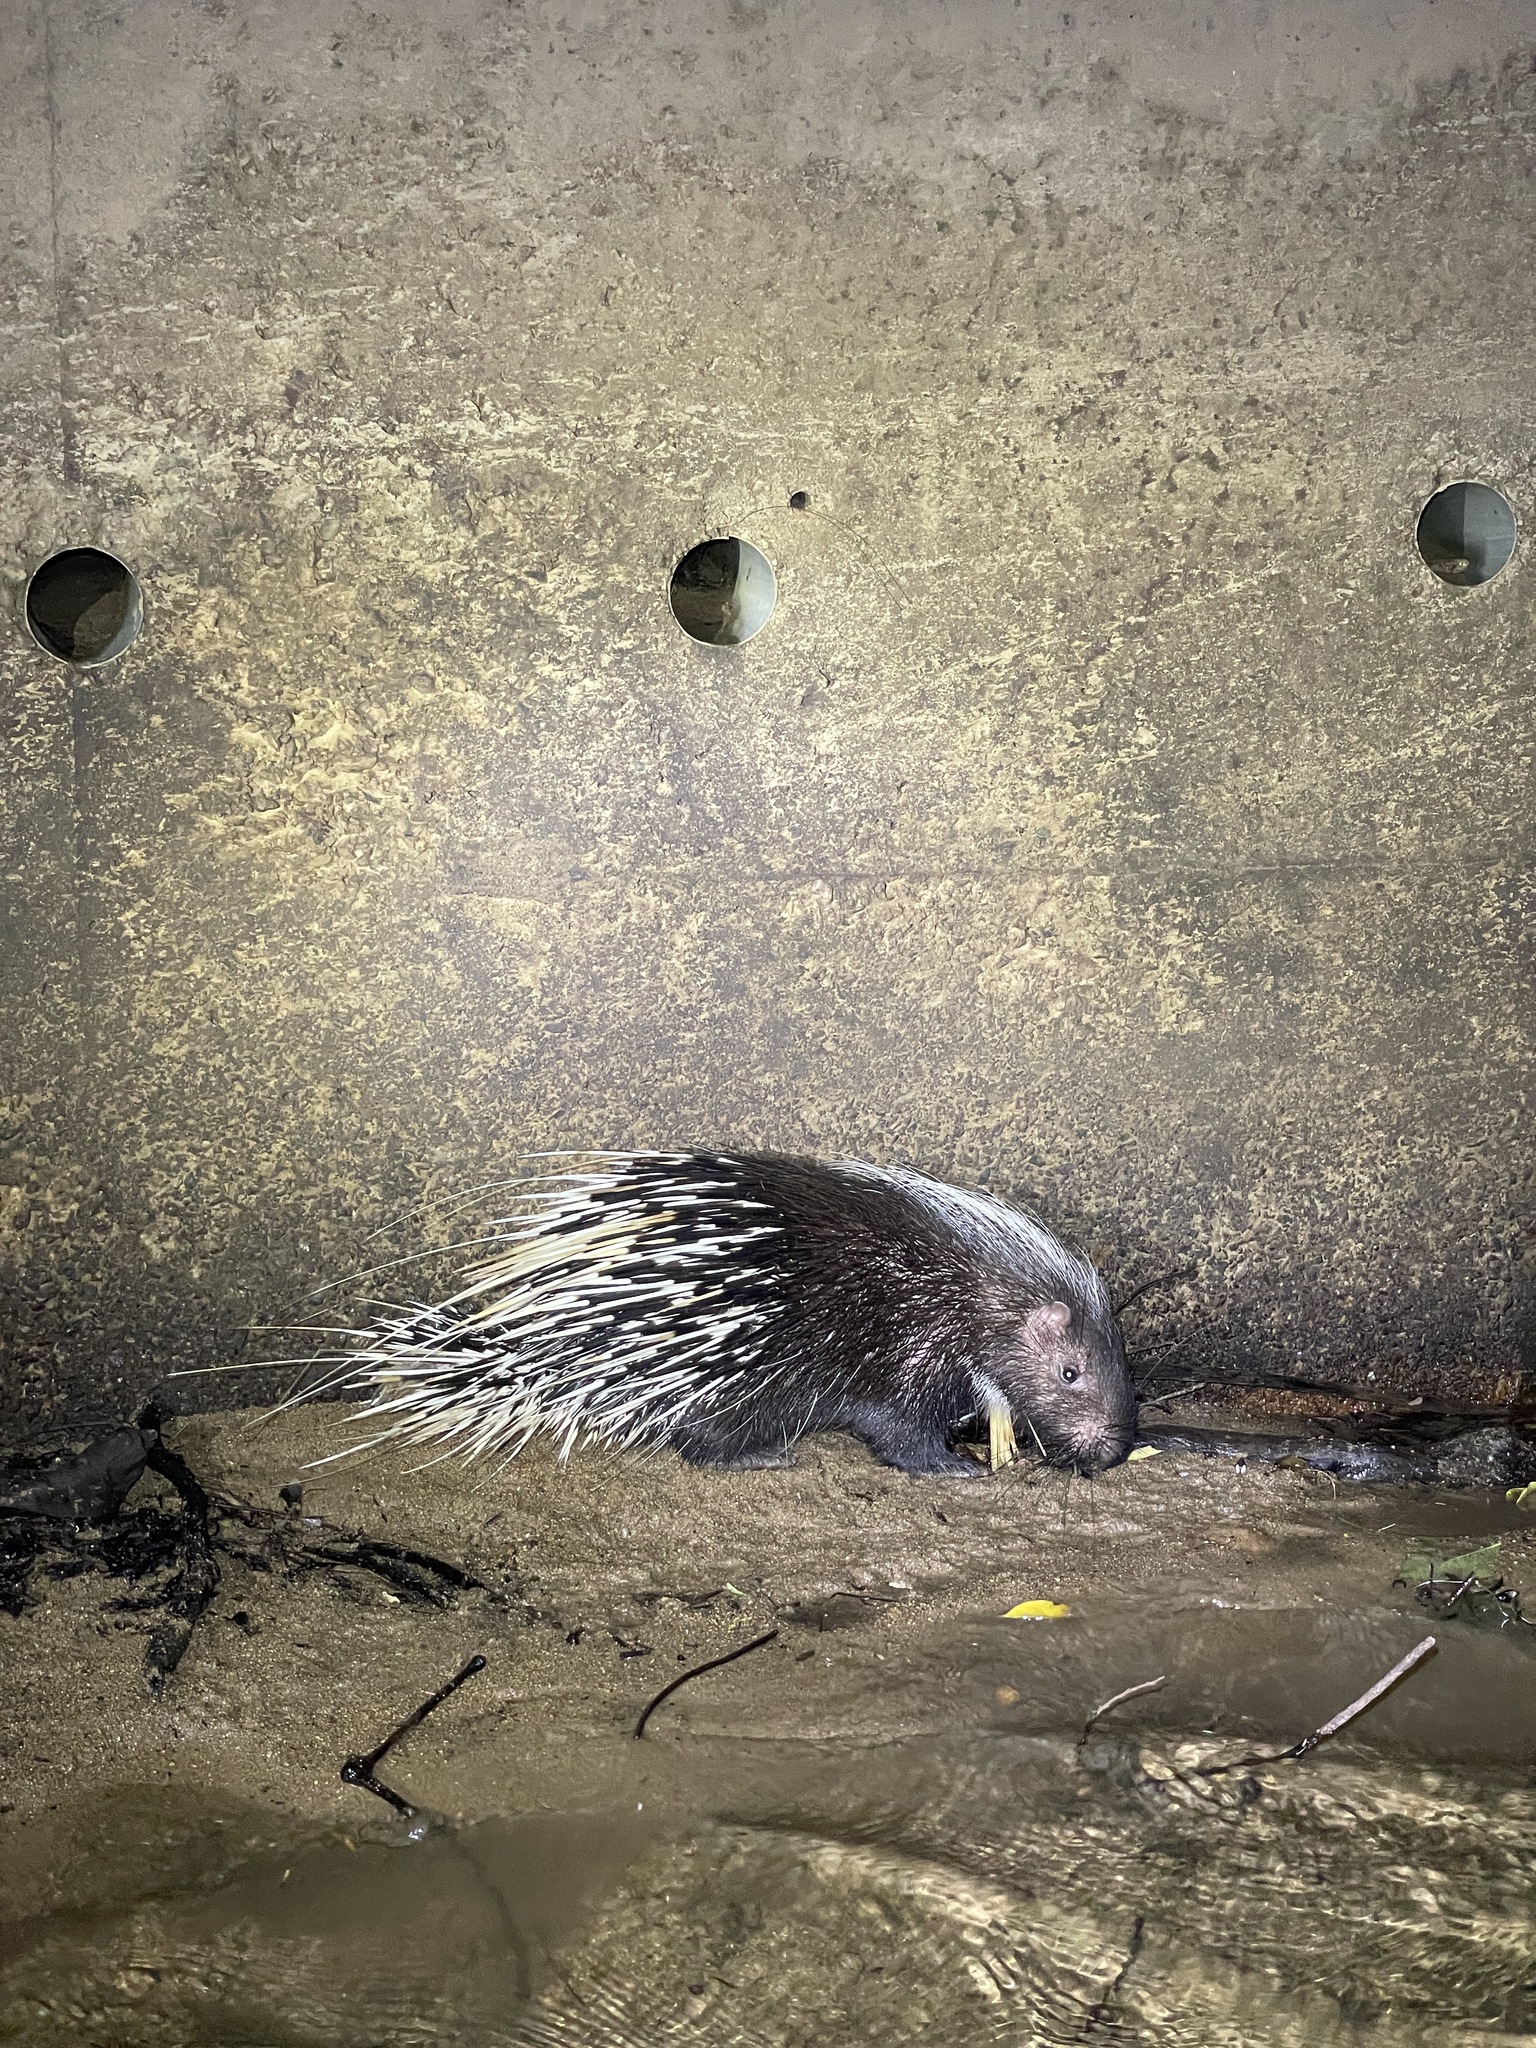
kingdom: Animalia
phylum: Chordata
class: Mammalia
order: Rodentia
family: Hystricidae
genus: Hystrix
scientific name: Hystrix brachyura
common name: Malayan porcupine
